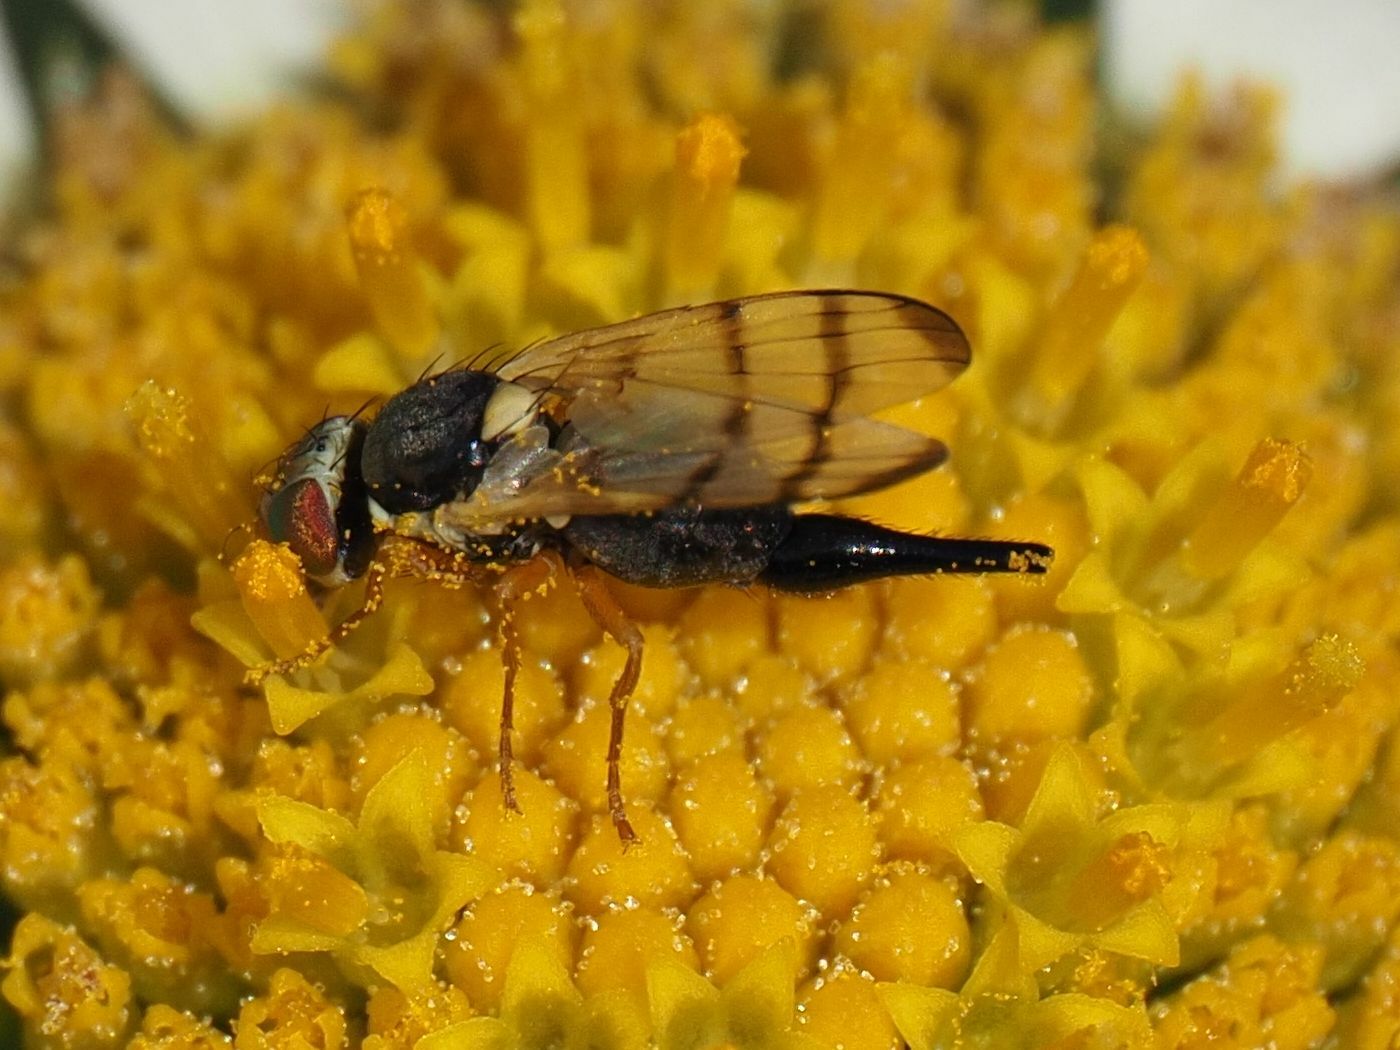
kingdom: Animalia
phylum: Arthropoda
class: Insecta
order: Diptera
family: Tephritidae
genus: Urophora
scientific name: Urophora solstitialis
